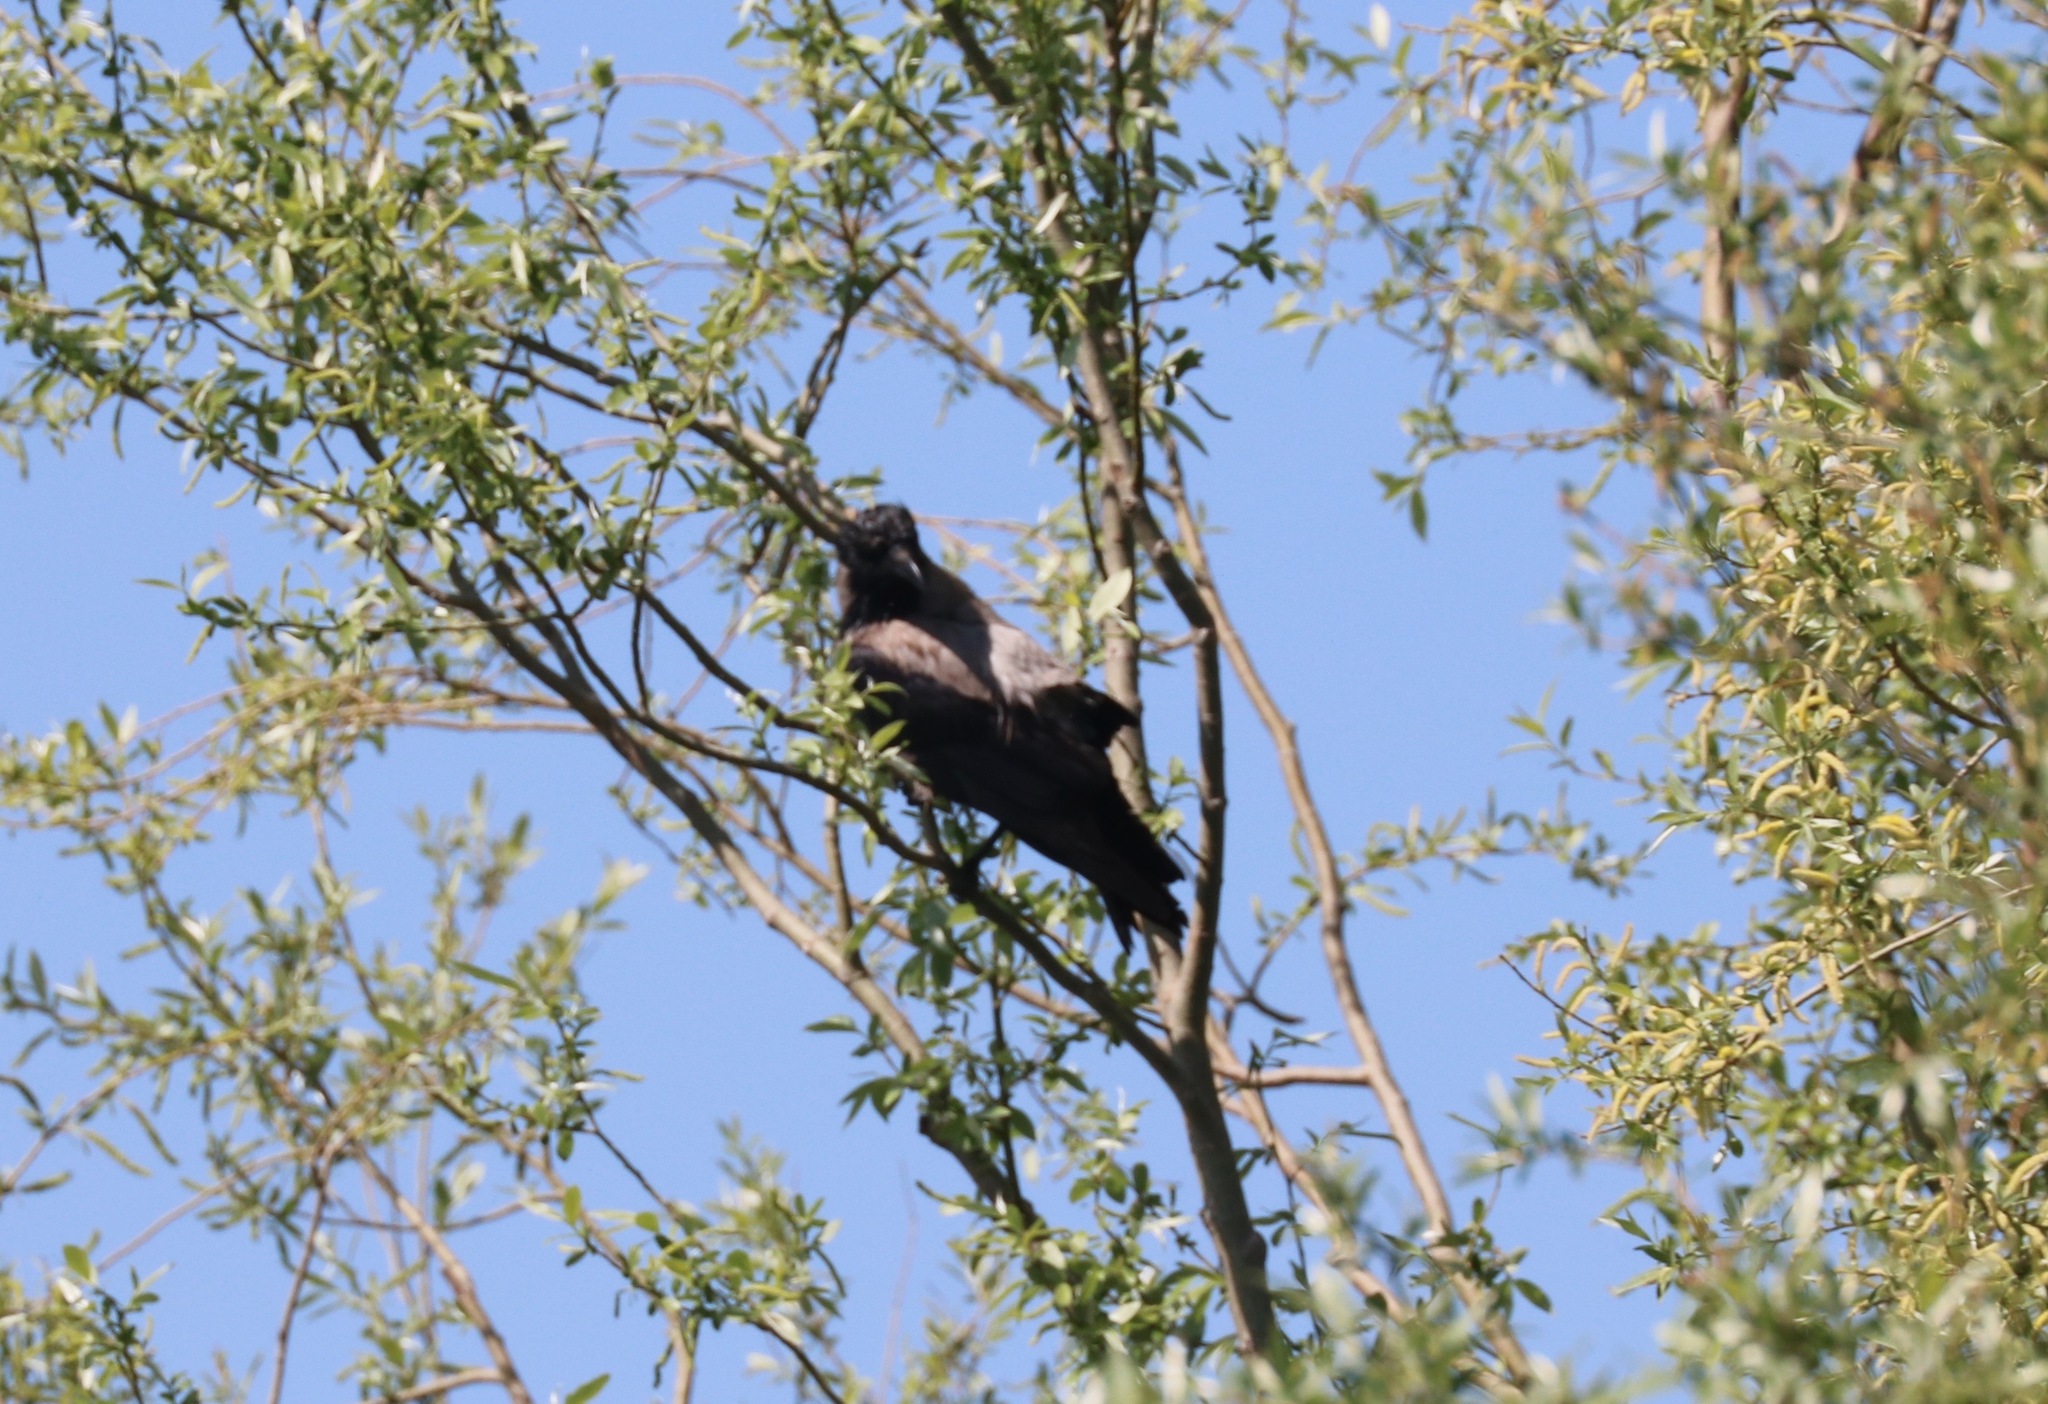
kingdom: Animalia
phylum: Chordata
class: Aves
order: Passeriformes
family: Corvidae
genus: Corvus
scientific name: Corvus cornix
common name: Hooded crow
